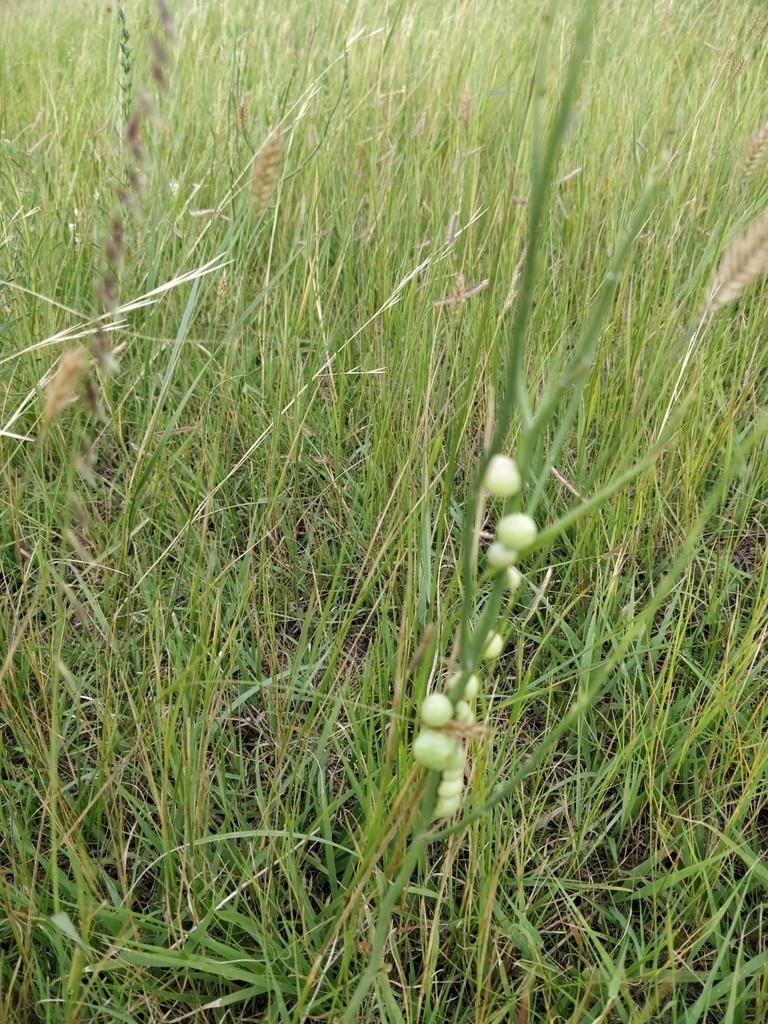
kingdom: Animalia
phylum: Arthropoda
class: Insecta
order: Hymenoptera
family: Cynipidae
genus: Antistrophus
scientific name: Antistrophus
